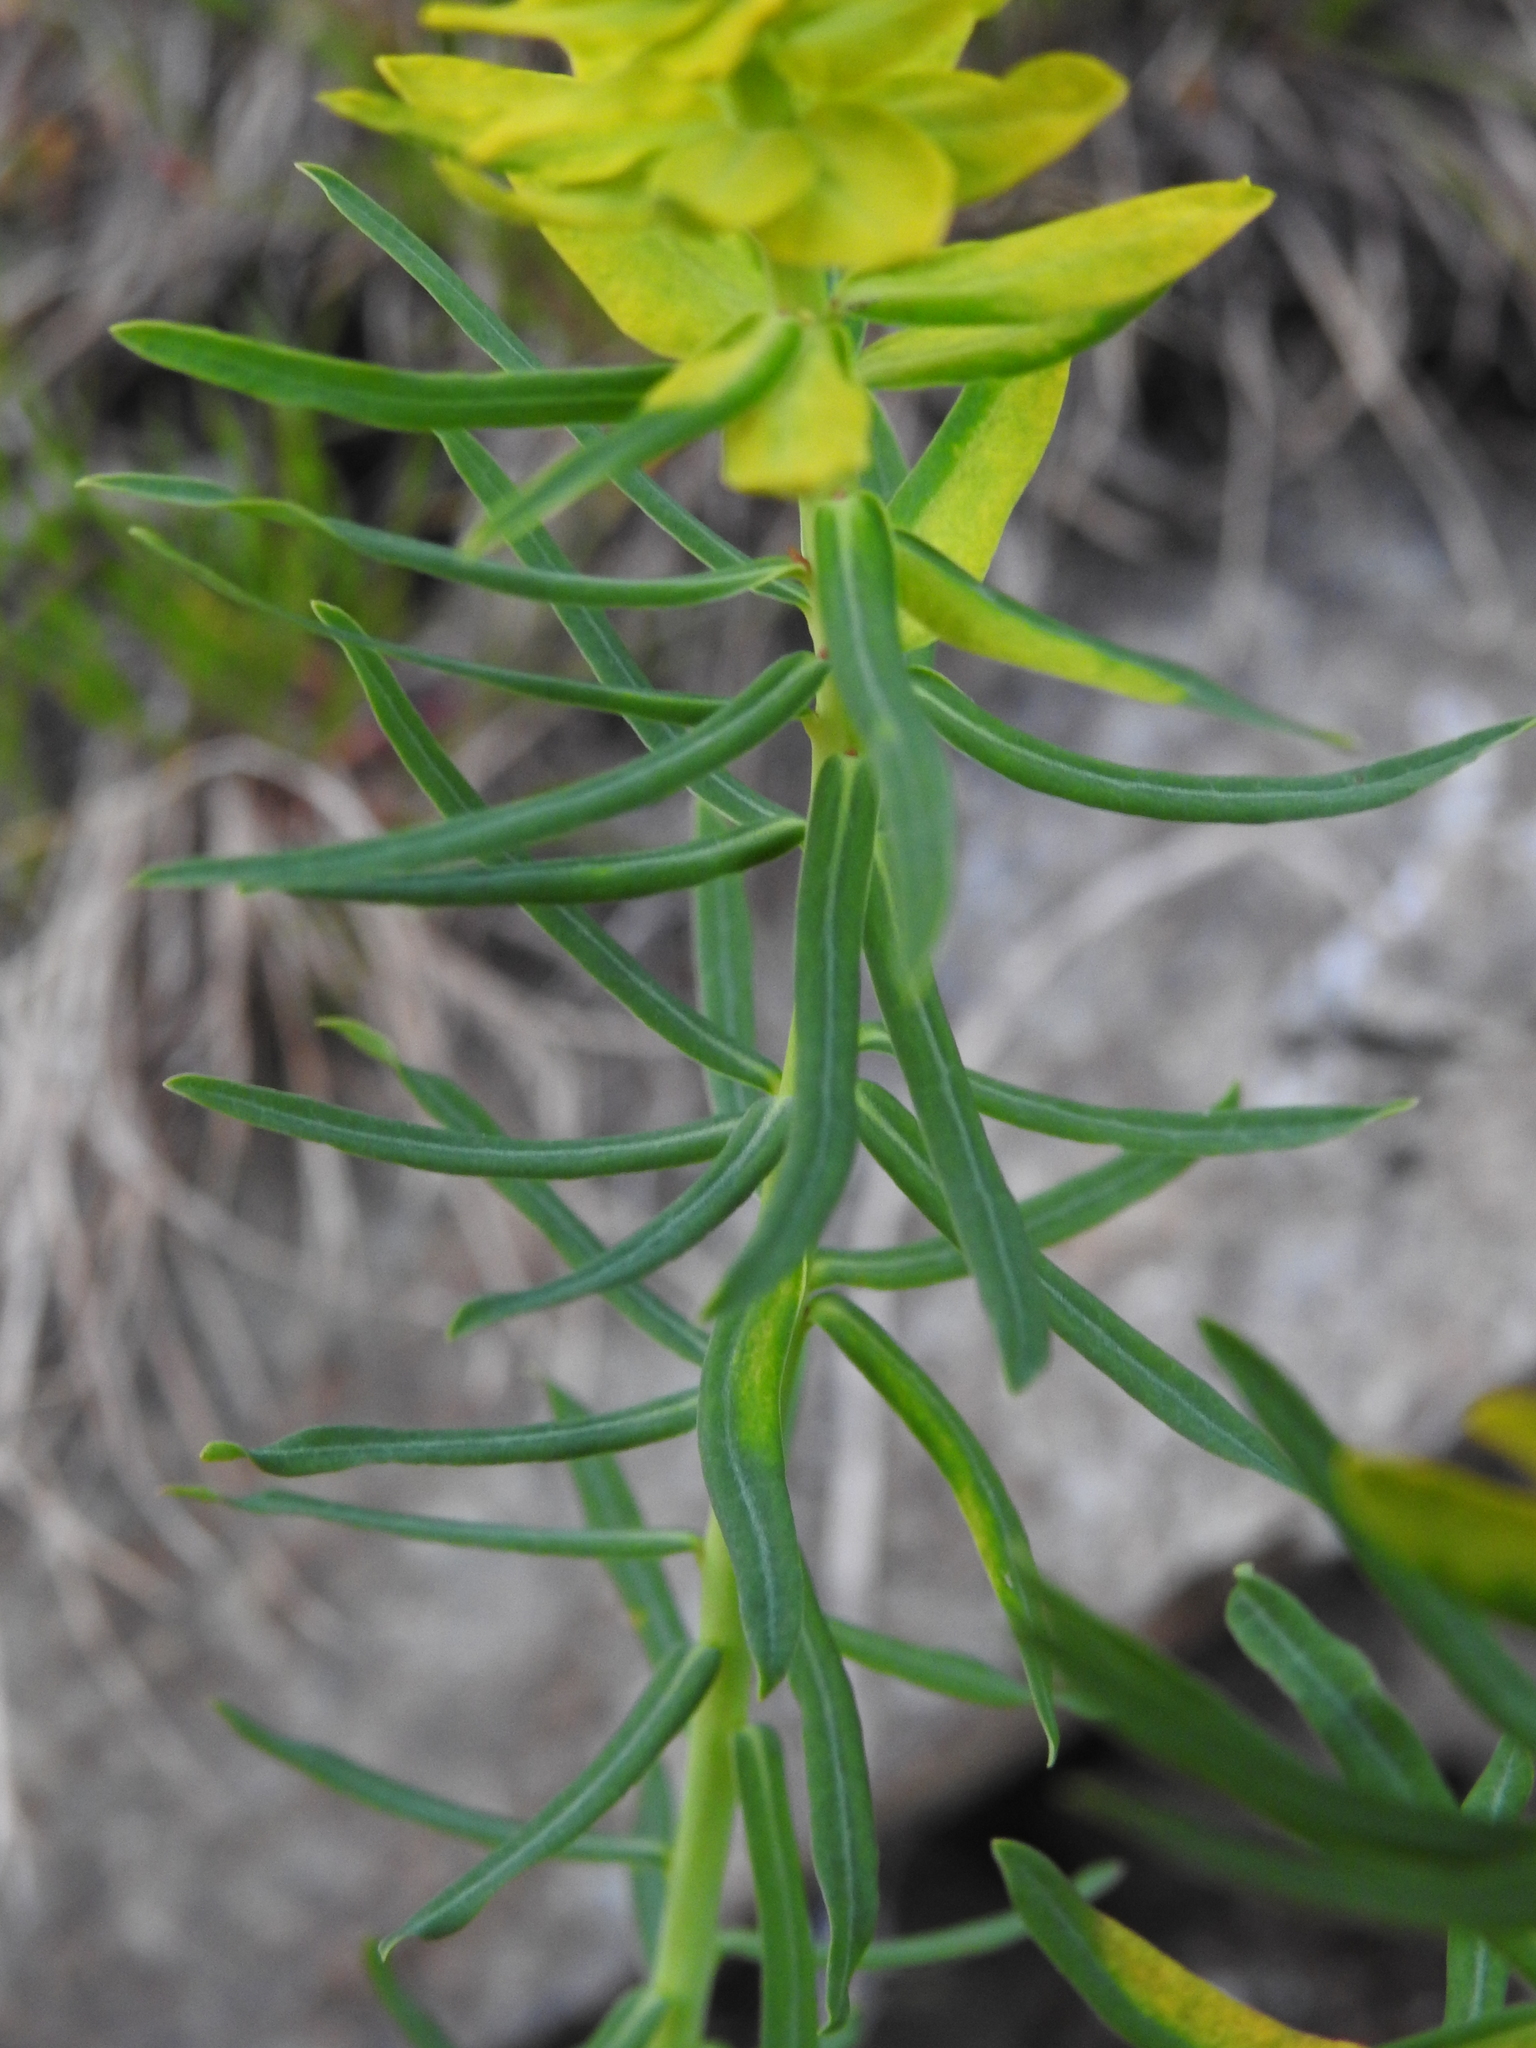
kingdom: Plantae
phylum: Tracheophyta
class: Magnoliopsida
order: Malpighiales
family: Euphorbiaceae
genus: Euphorbia
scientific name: Euphorbia cyparissias
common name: Cypress spurge
